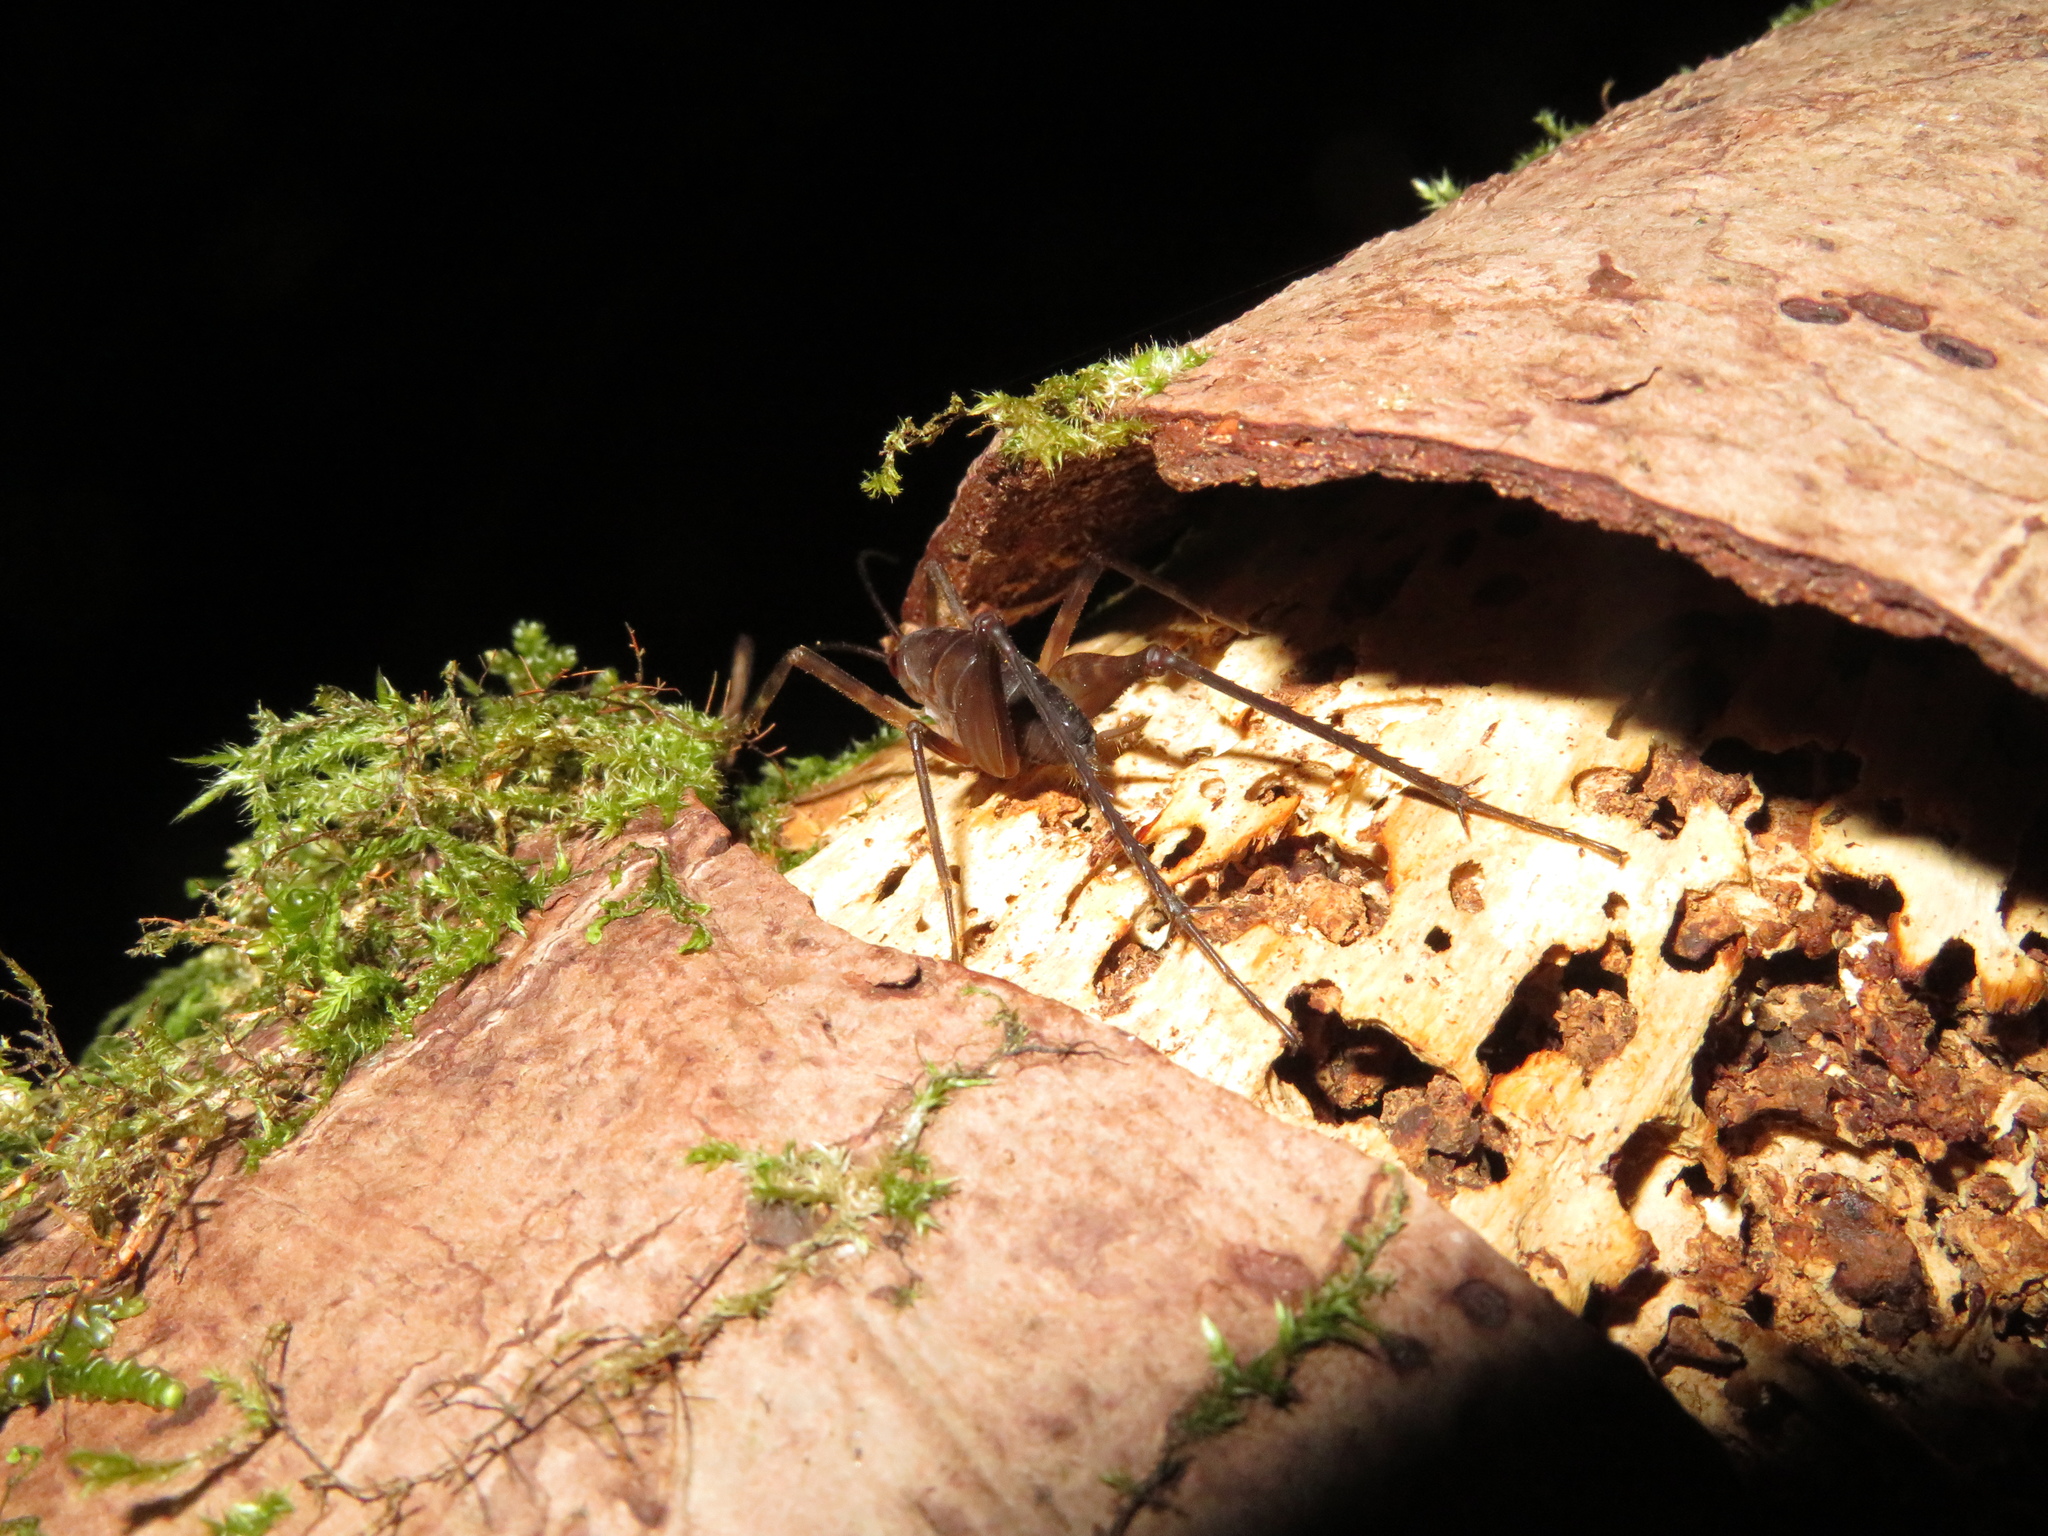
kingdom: Animalia
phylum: Arthropoda
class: Insecta
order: Orthoptera
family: Rhaphidophoridae
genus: Pachyrhamma
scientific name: Pachyrhamma longipes
